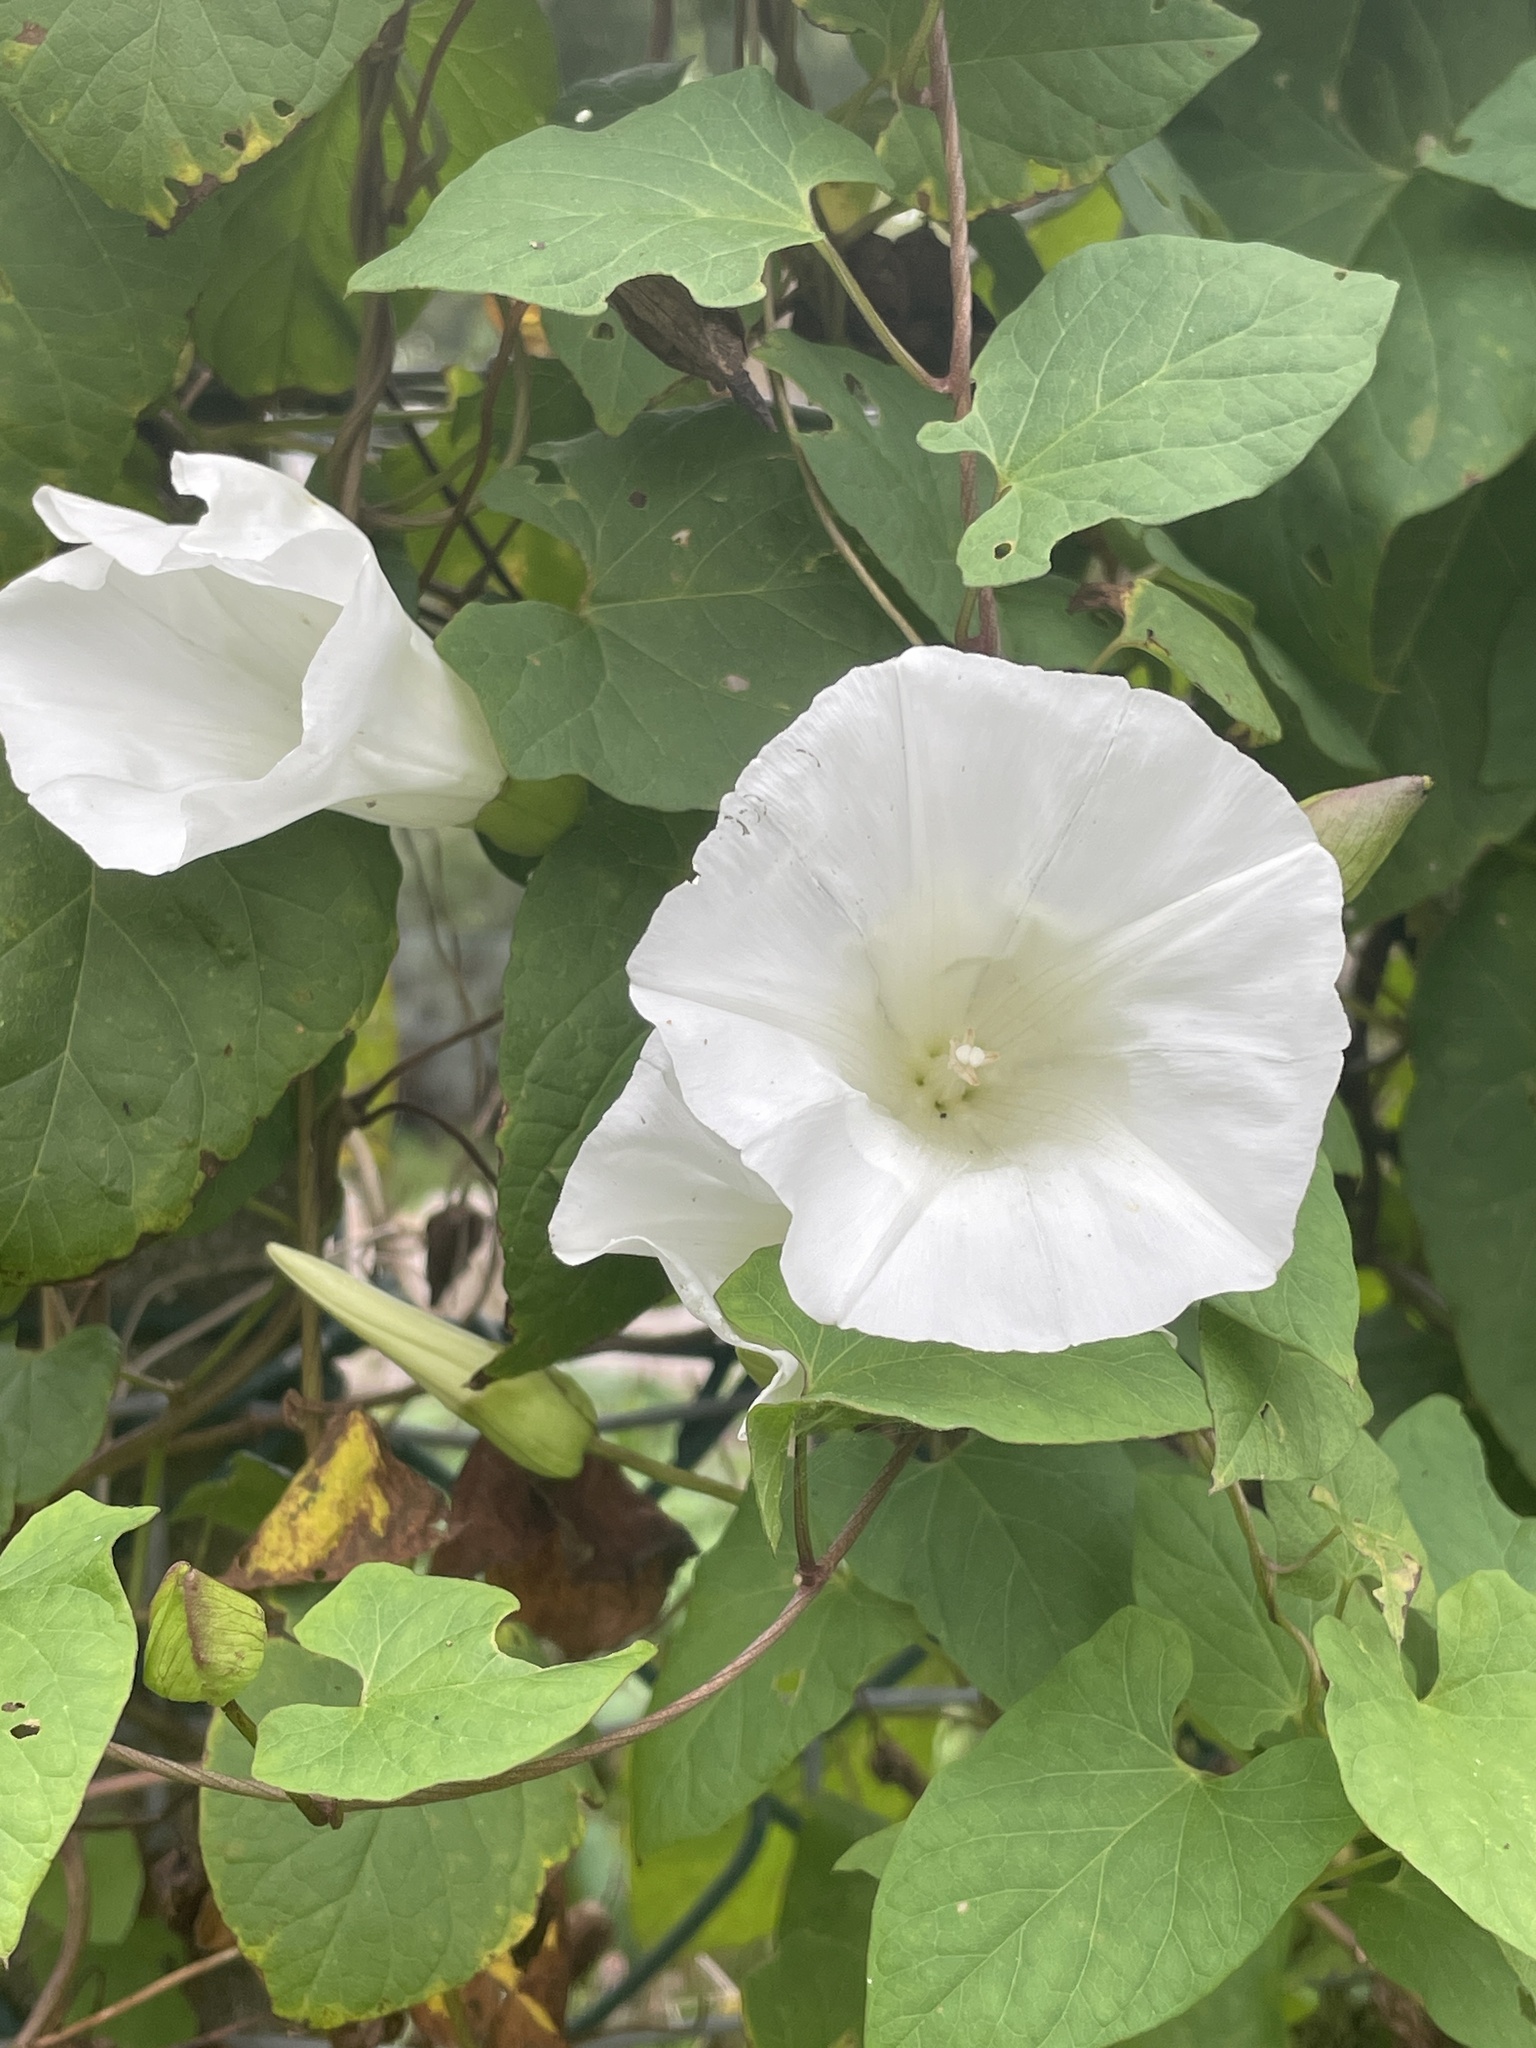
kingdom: Plantae
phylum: Tracheophyta
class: Magnoliopsida
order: Solanales
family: Convolvulaceae
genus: Calystegia
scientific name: Calystegia silvatica
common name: Large bindweed
